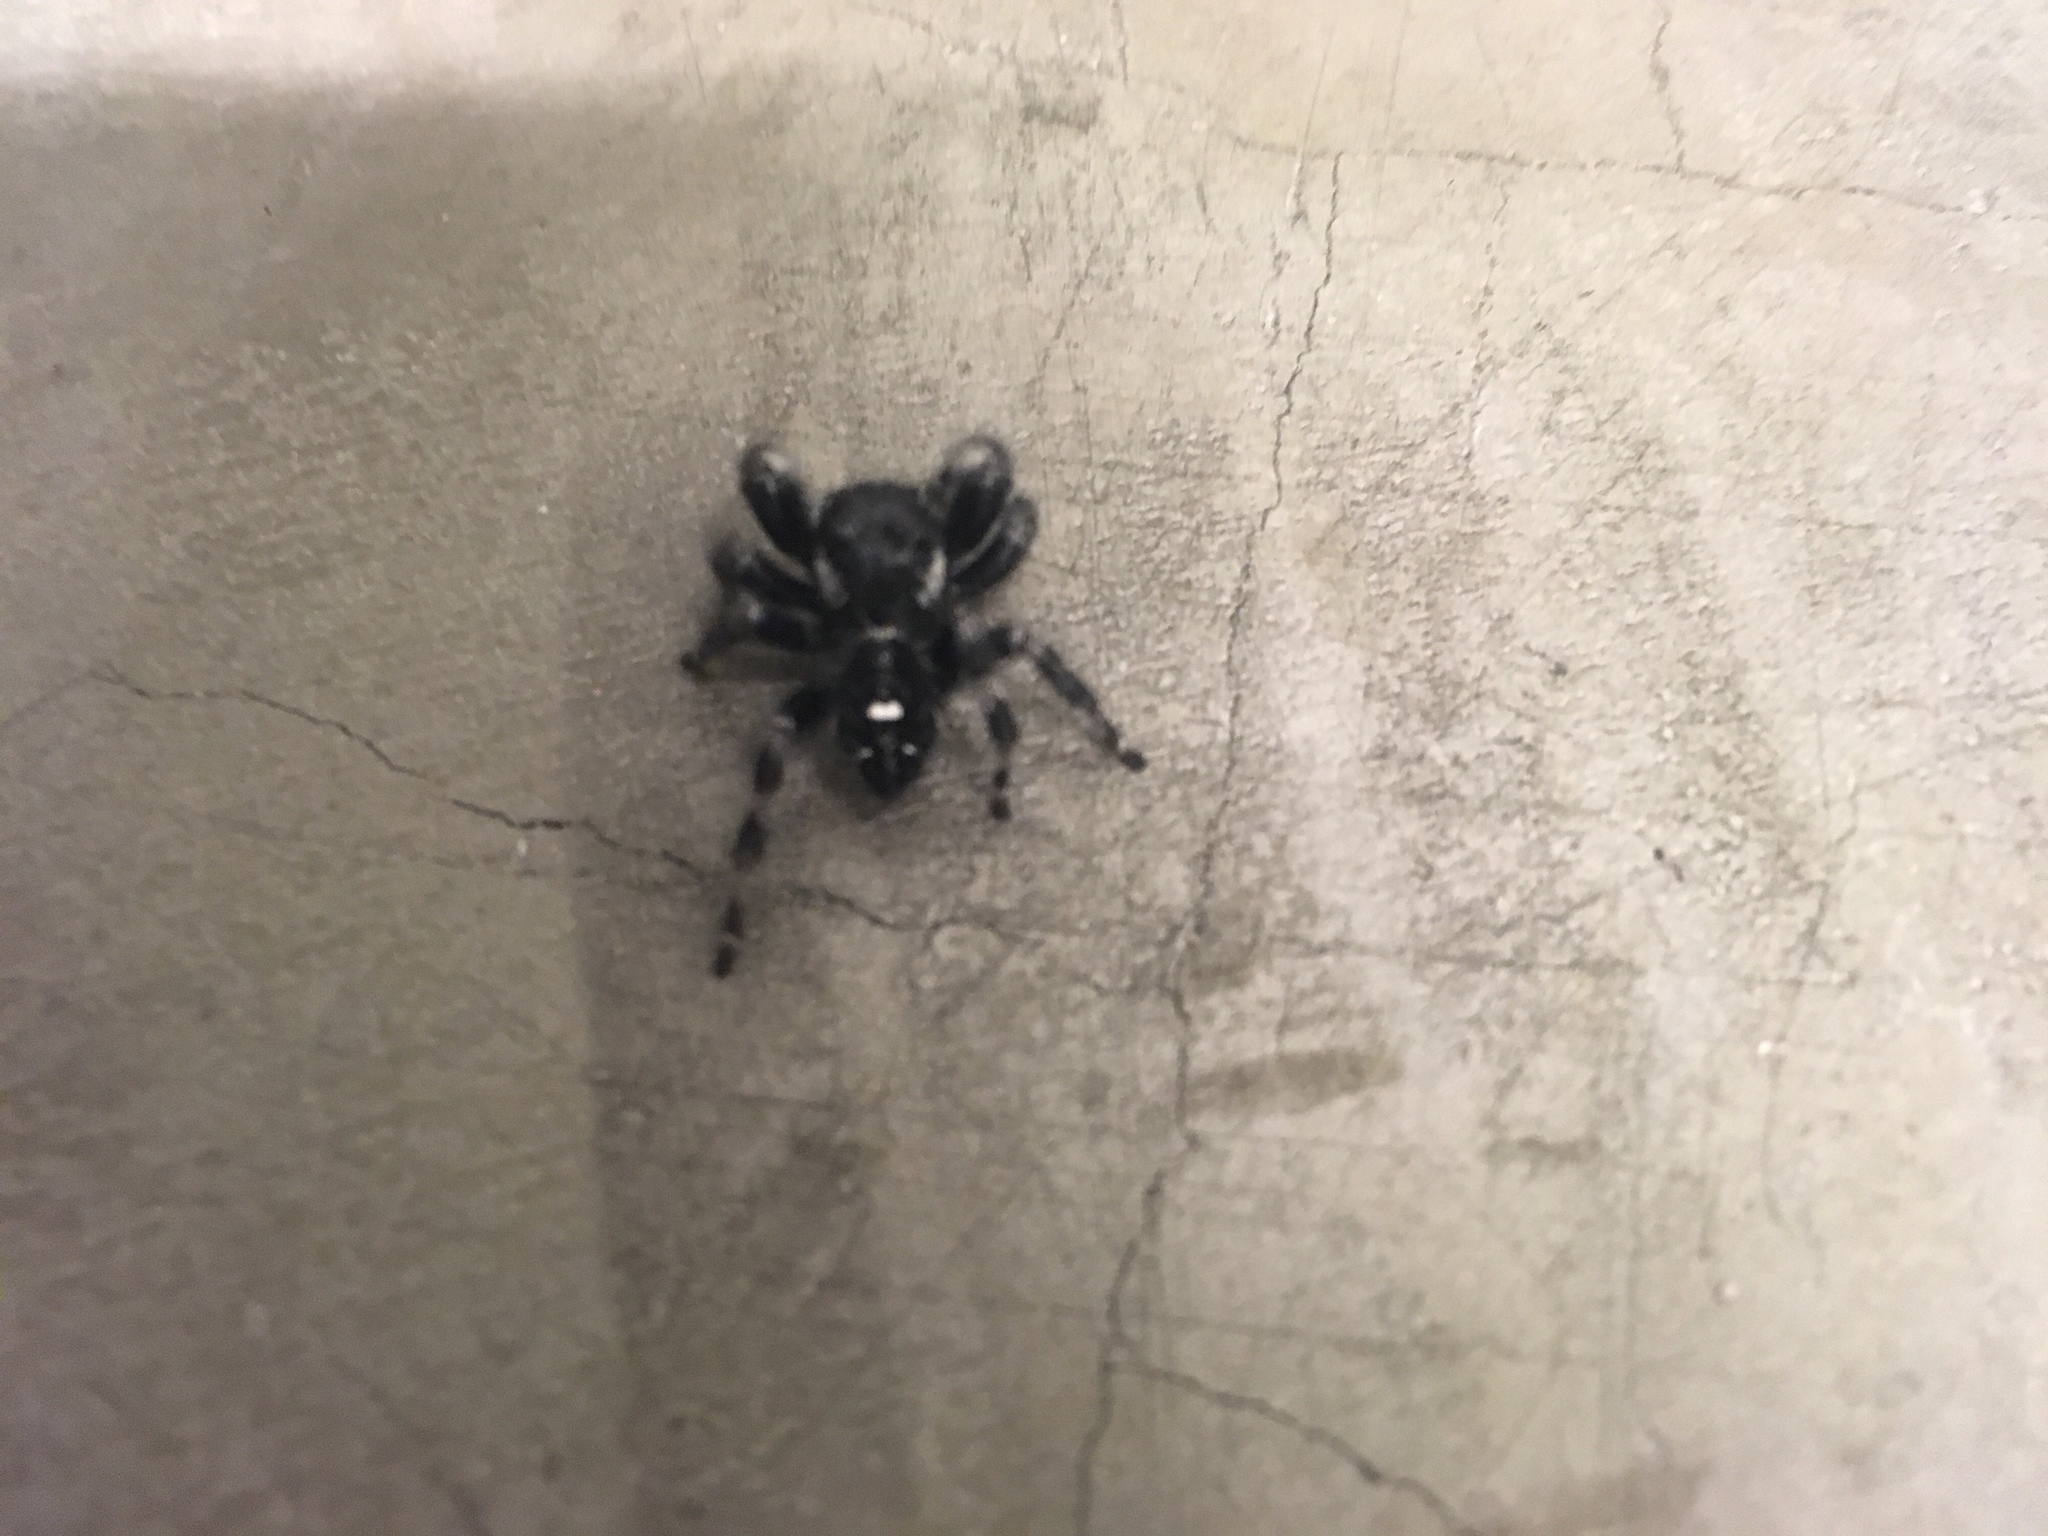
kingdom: Animalia
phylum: Arthropoda
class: Arachnida
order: Araneae
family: Salticidae
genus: Phidippus
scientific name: Phidippus audax
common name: Bold jumper
